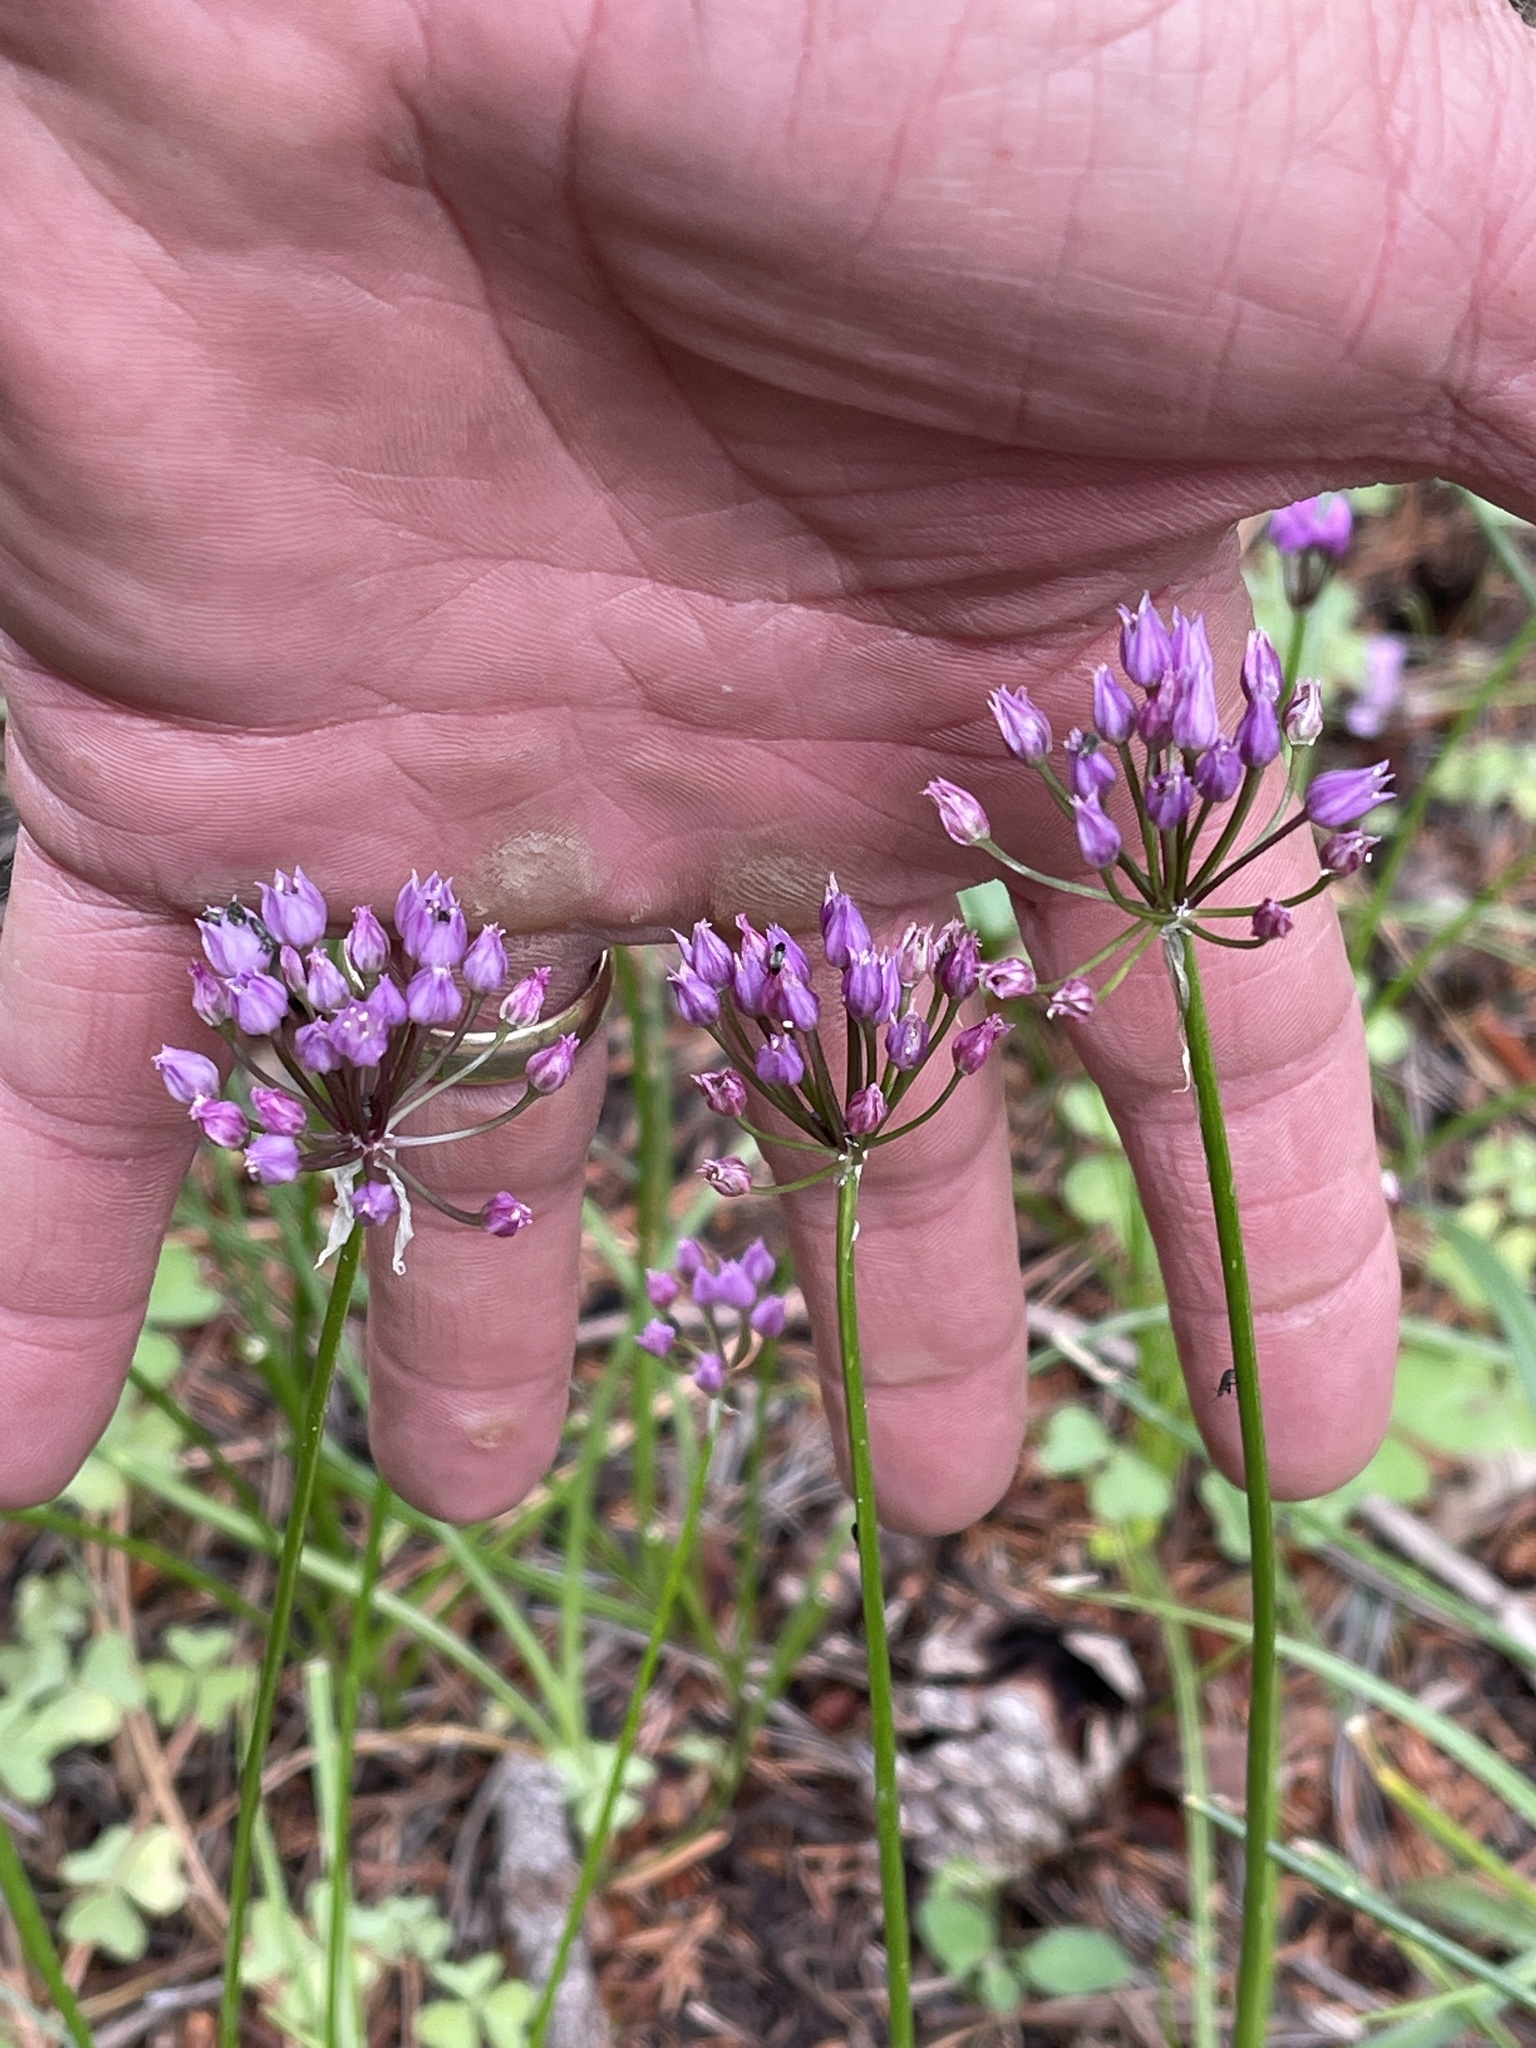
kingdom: Plantae
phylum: Tracheophyta
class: Liliopsida
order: Asparagales
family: Amaryllidaceae
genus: Allium
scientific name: Allium geyeri
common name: Geyer's onion
